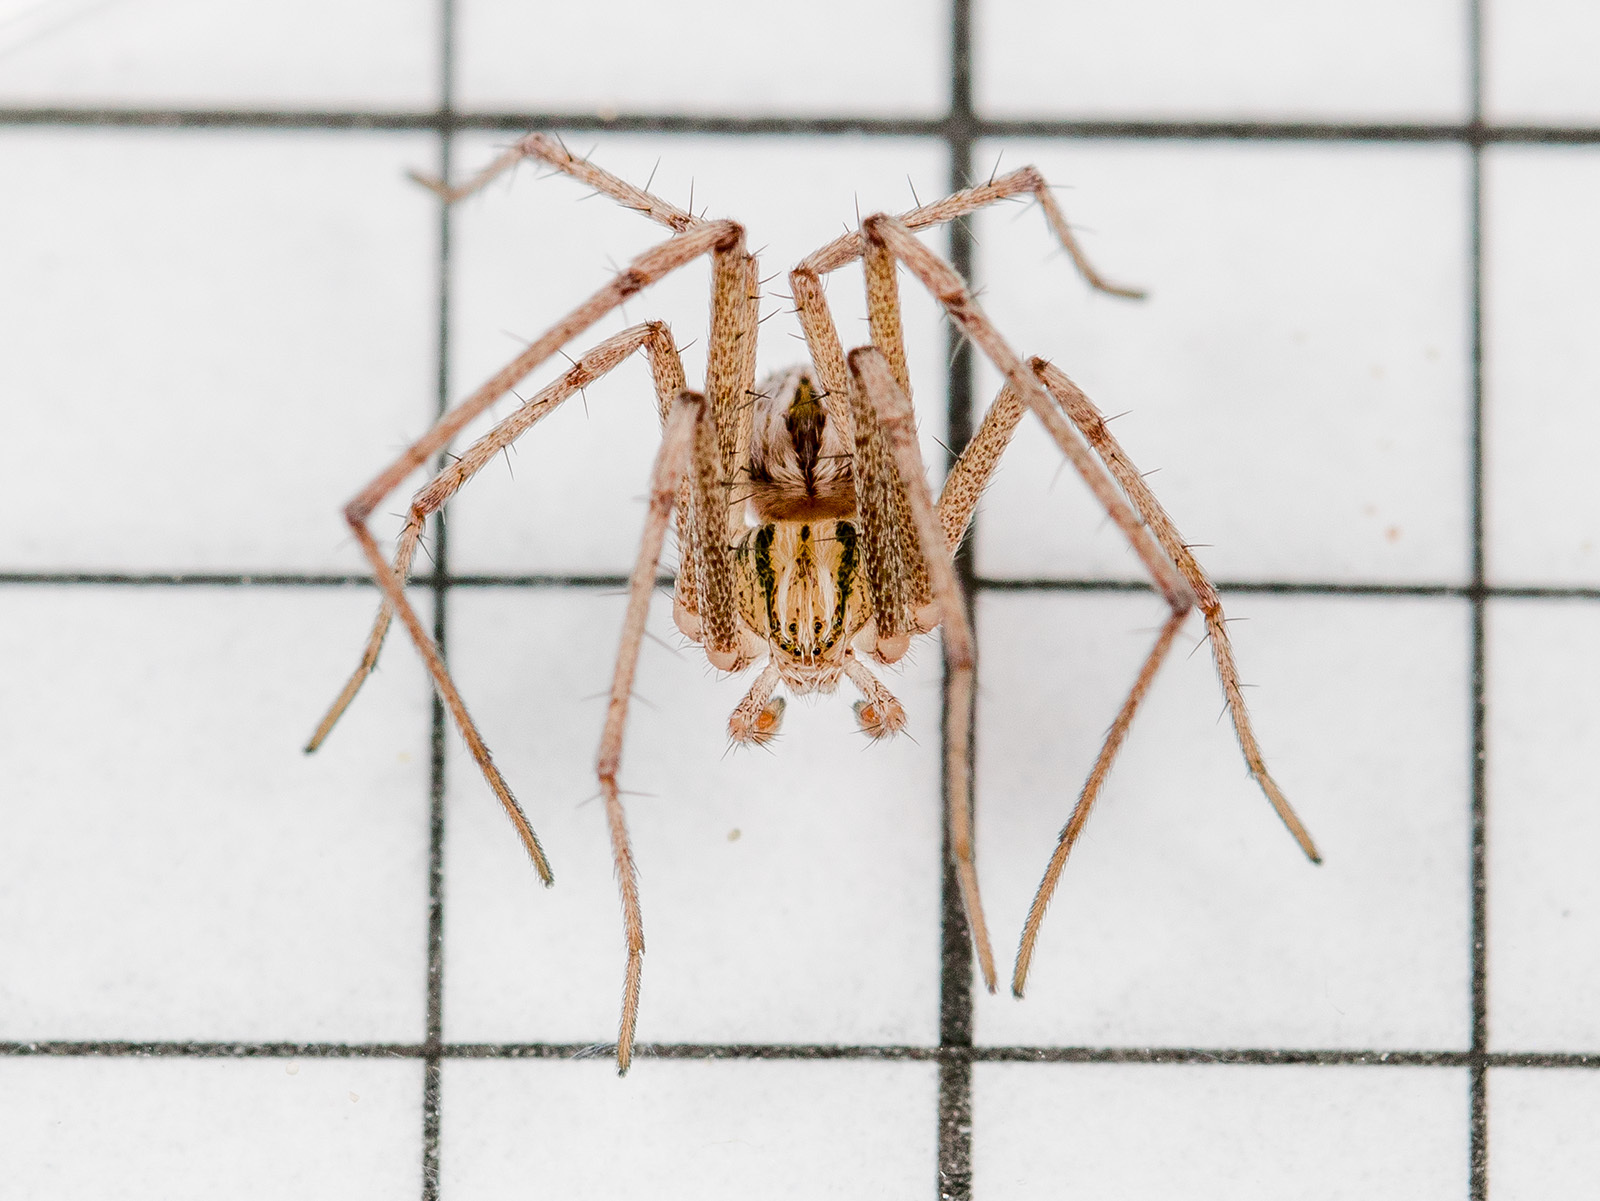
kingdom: Animalia
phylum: Arthropoda
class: Arachnida
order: Araneae
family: Philodromidae
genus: Thanatus
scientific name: Thanatus oblongiusculus
